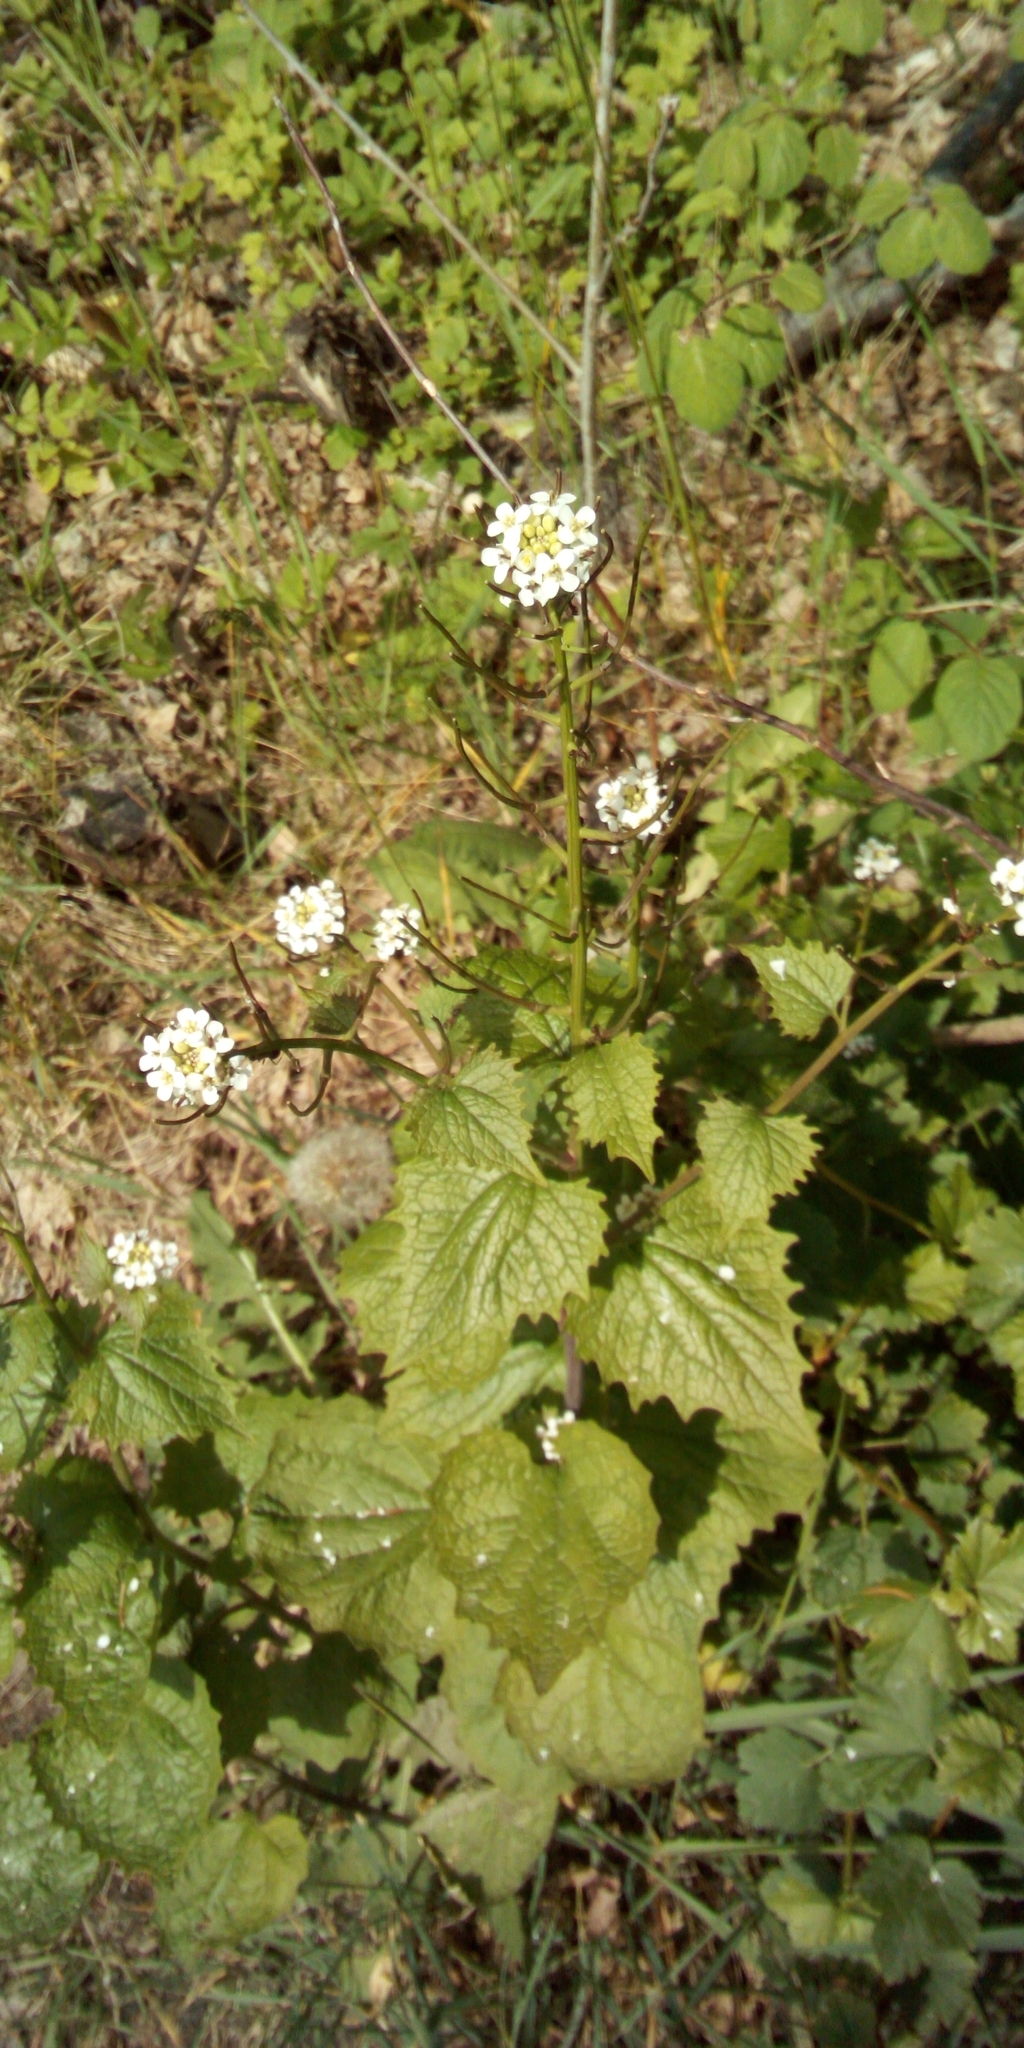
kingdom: Plantae
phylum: Tracheophyta
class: Magnoliopsida
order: Brassicales
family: Brassicaceae
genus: Alliaria
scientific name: Alliaria petiolata
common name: Garlic mustard
